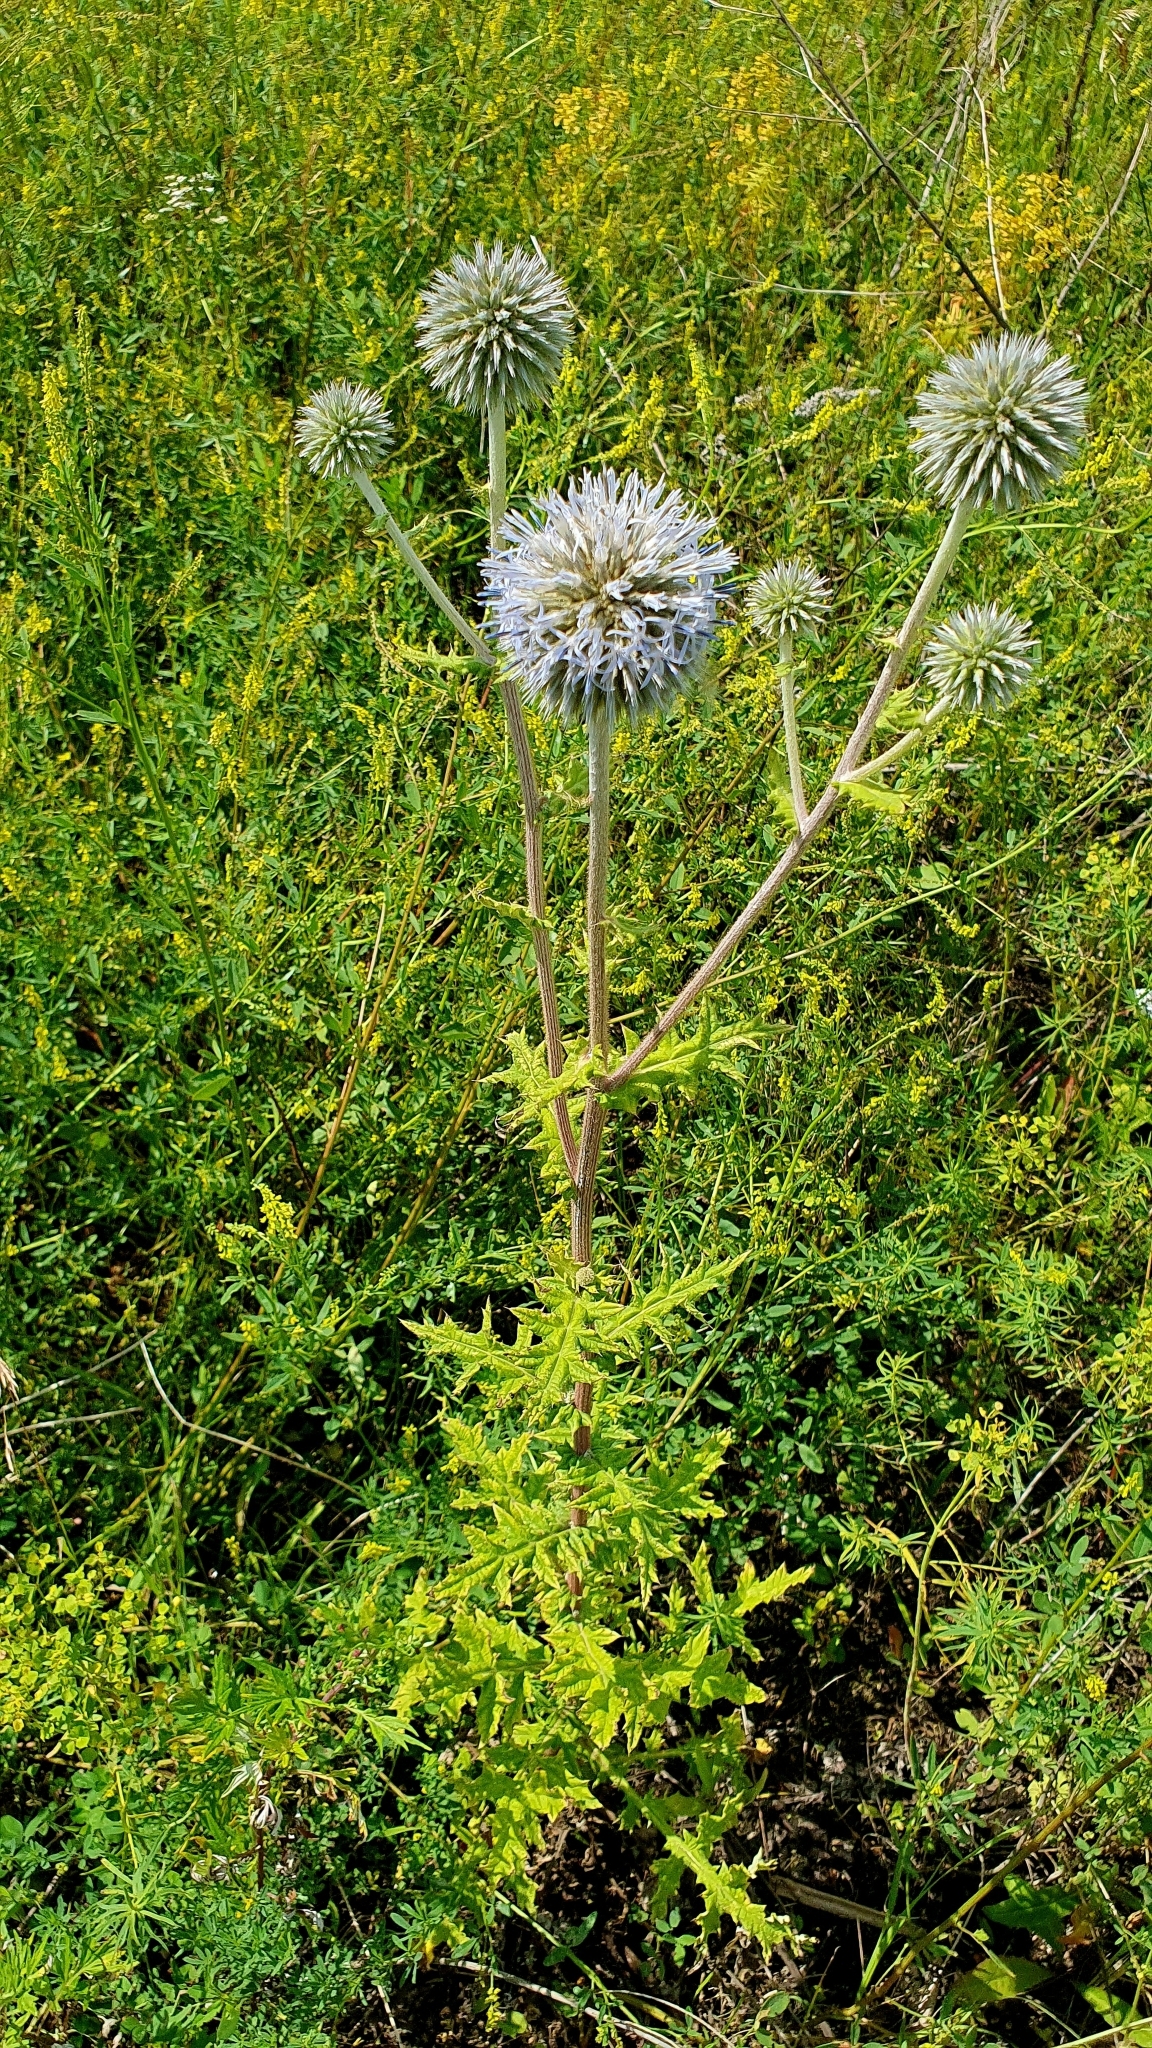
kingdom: Plantae
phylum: Tracheophyta
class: Magnoliopsida
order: Asterales
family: Asteraceae
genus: Echinops
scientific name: Echinops sphaerocephalus
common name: Glandular globe-thistle
